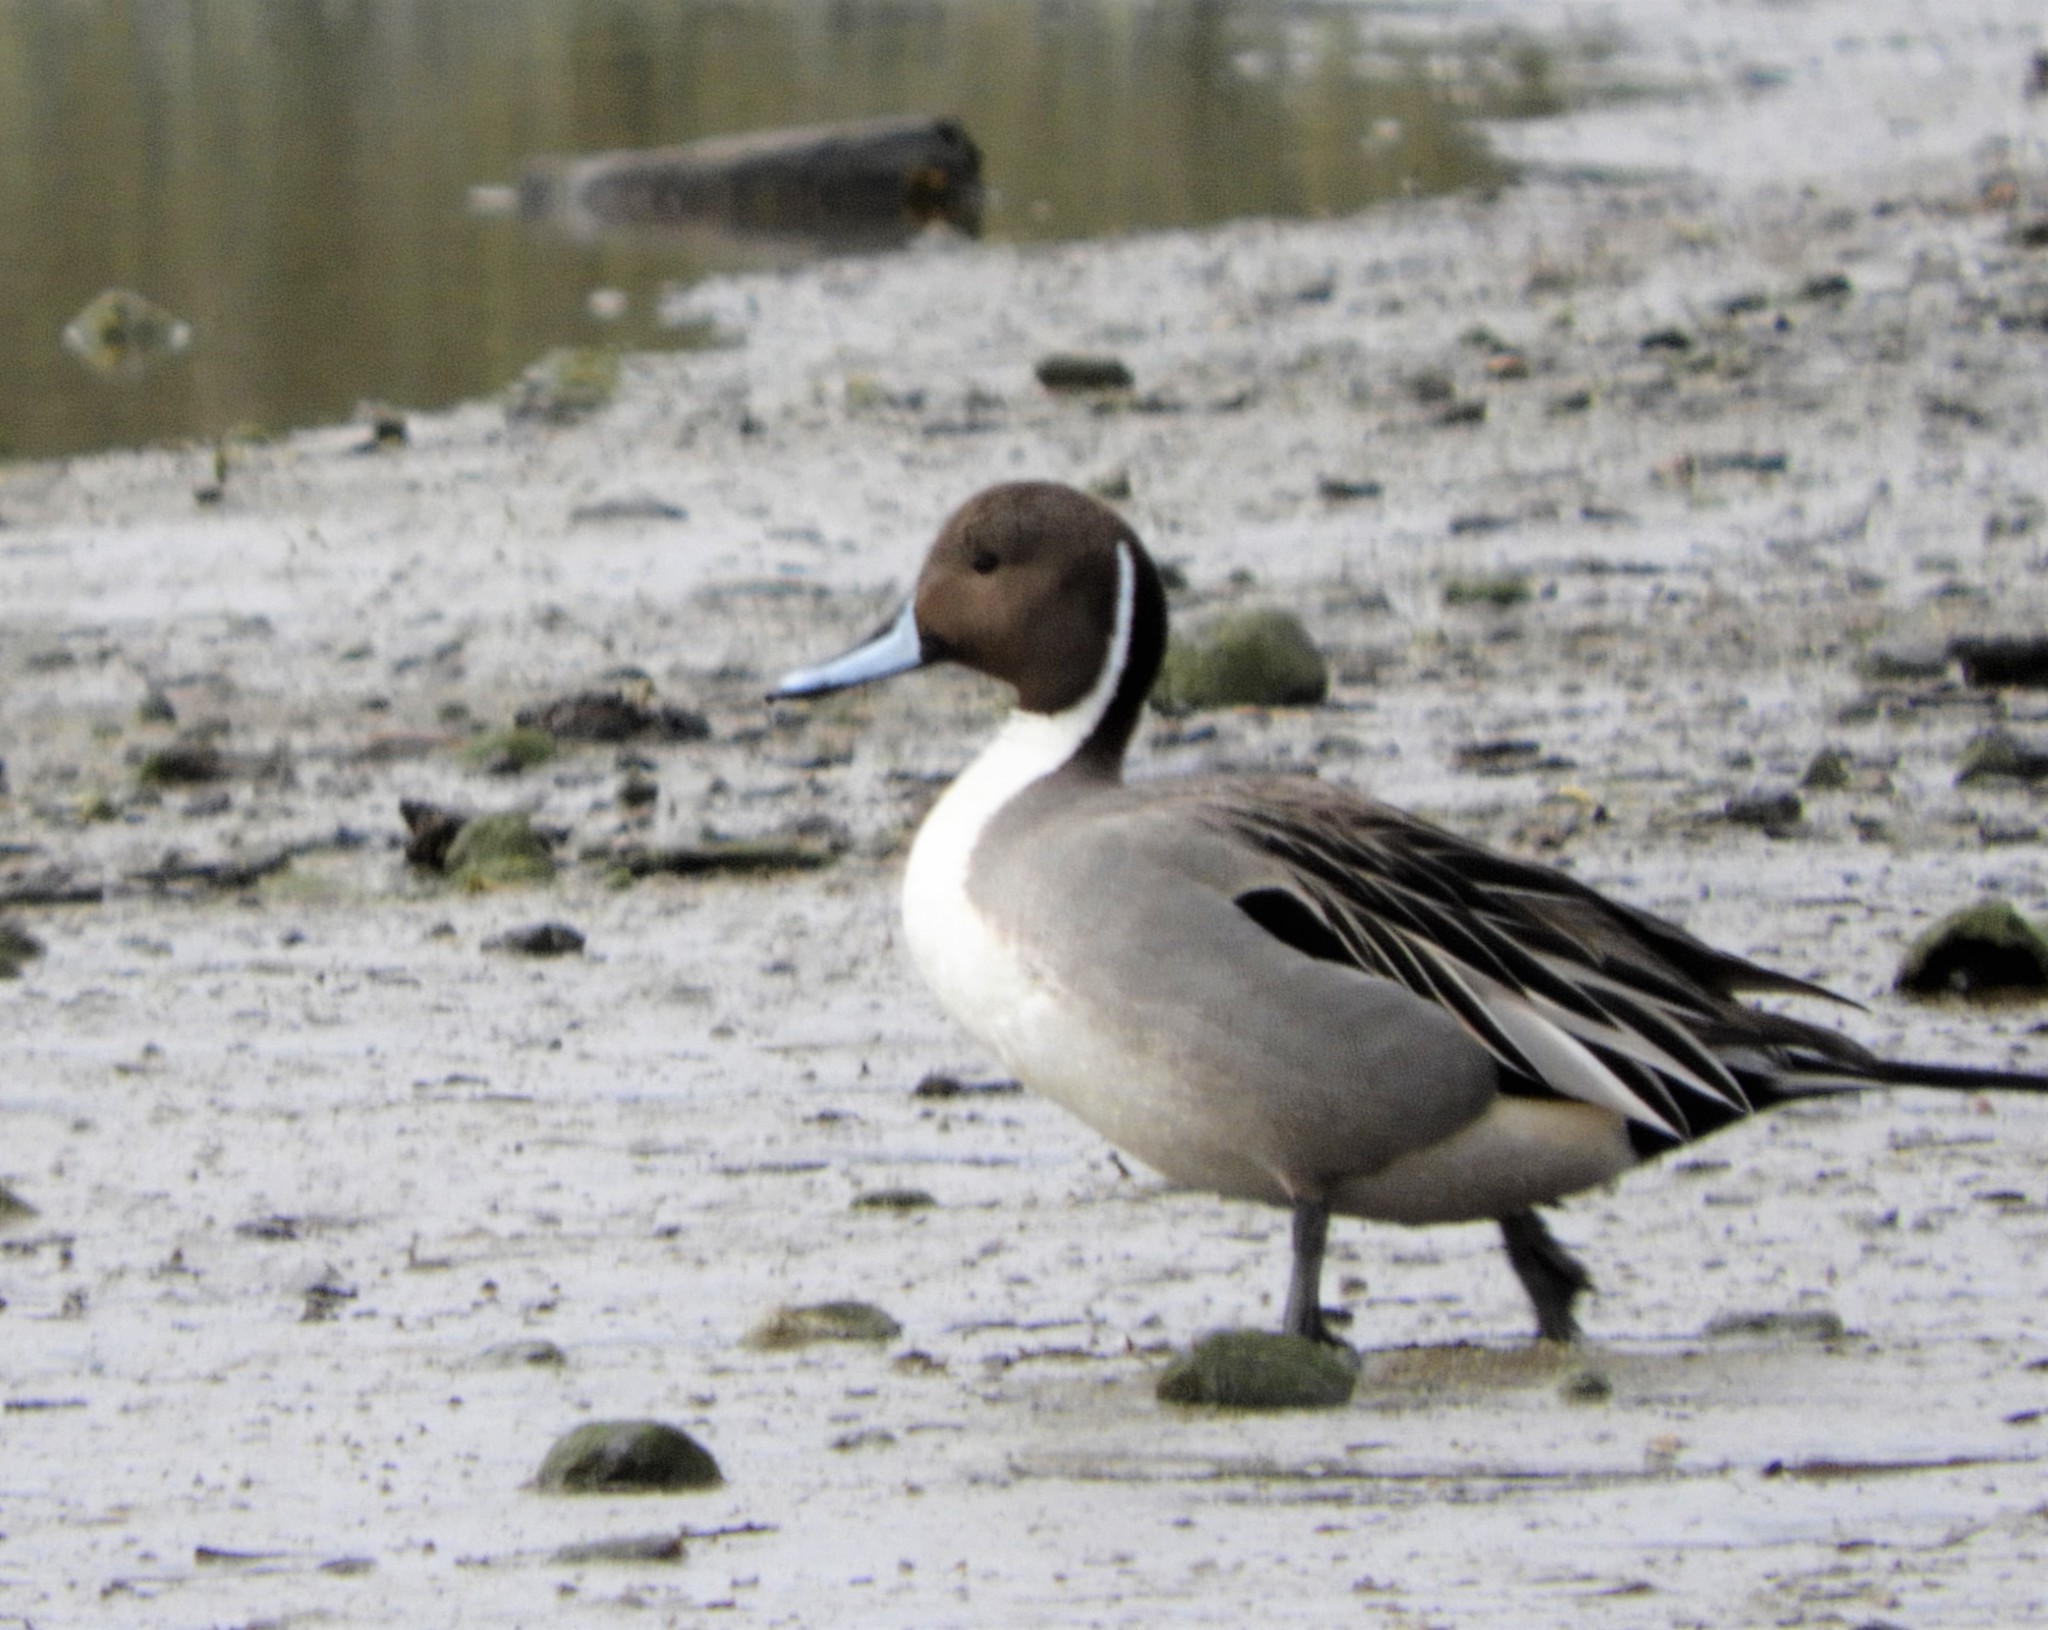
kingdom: Animalia
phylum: Chordata
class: Aves
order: Anseriformes
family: Anatidae
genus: Anas
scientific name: Anas acuta
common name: Northern pintail
